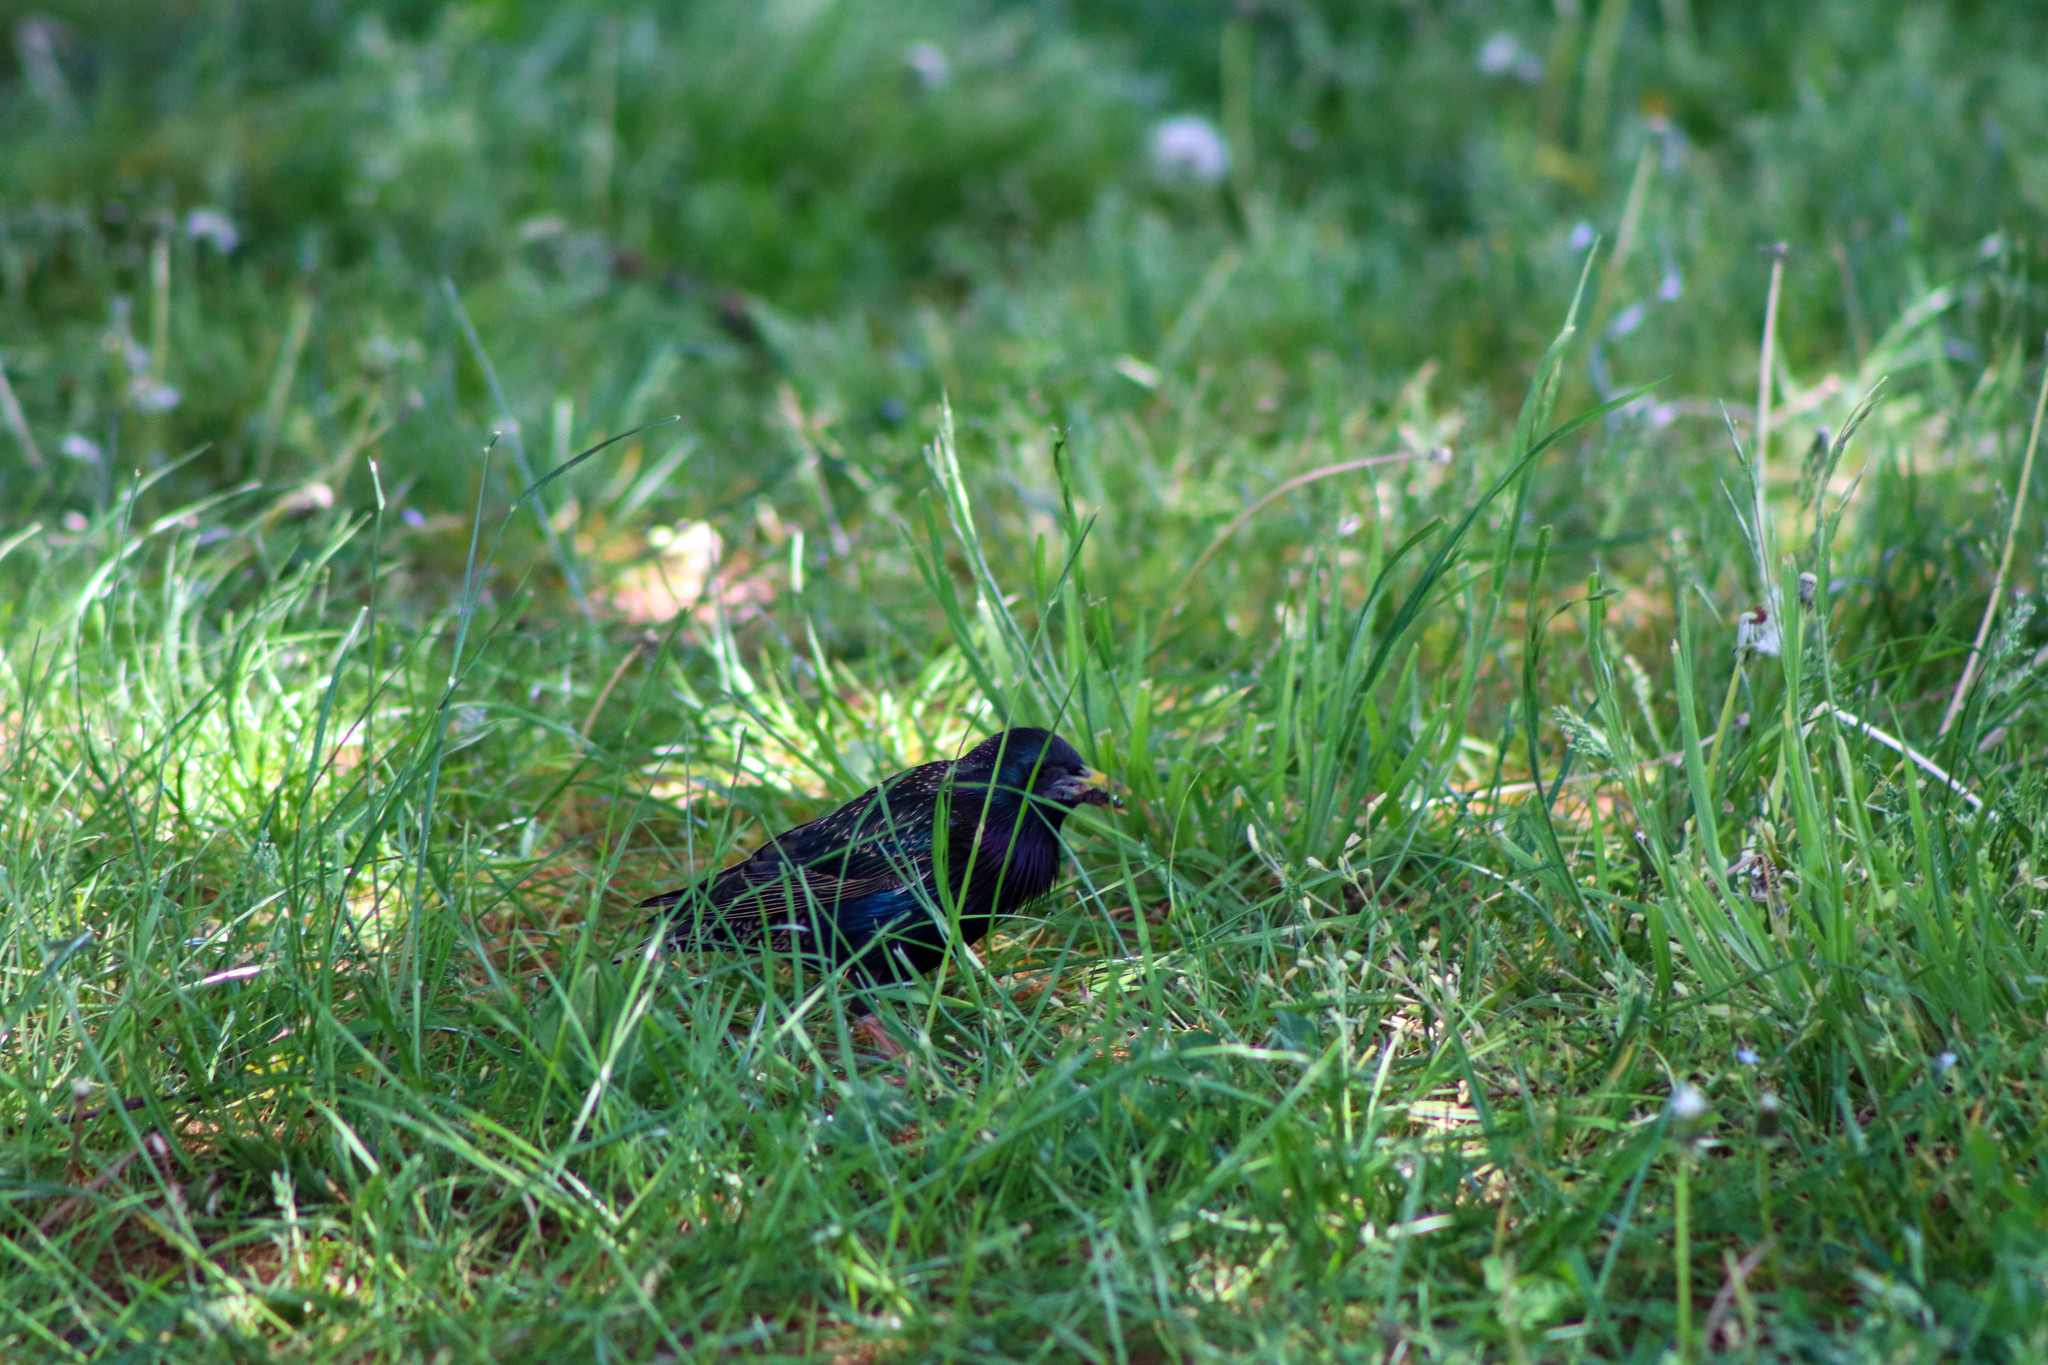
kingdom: Animalia
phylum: Chordata
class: Aves
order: Passeriformes
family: Sturnidae
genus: Sturnus
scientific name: Sturnus vulgaris
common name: Common starling
